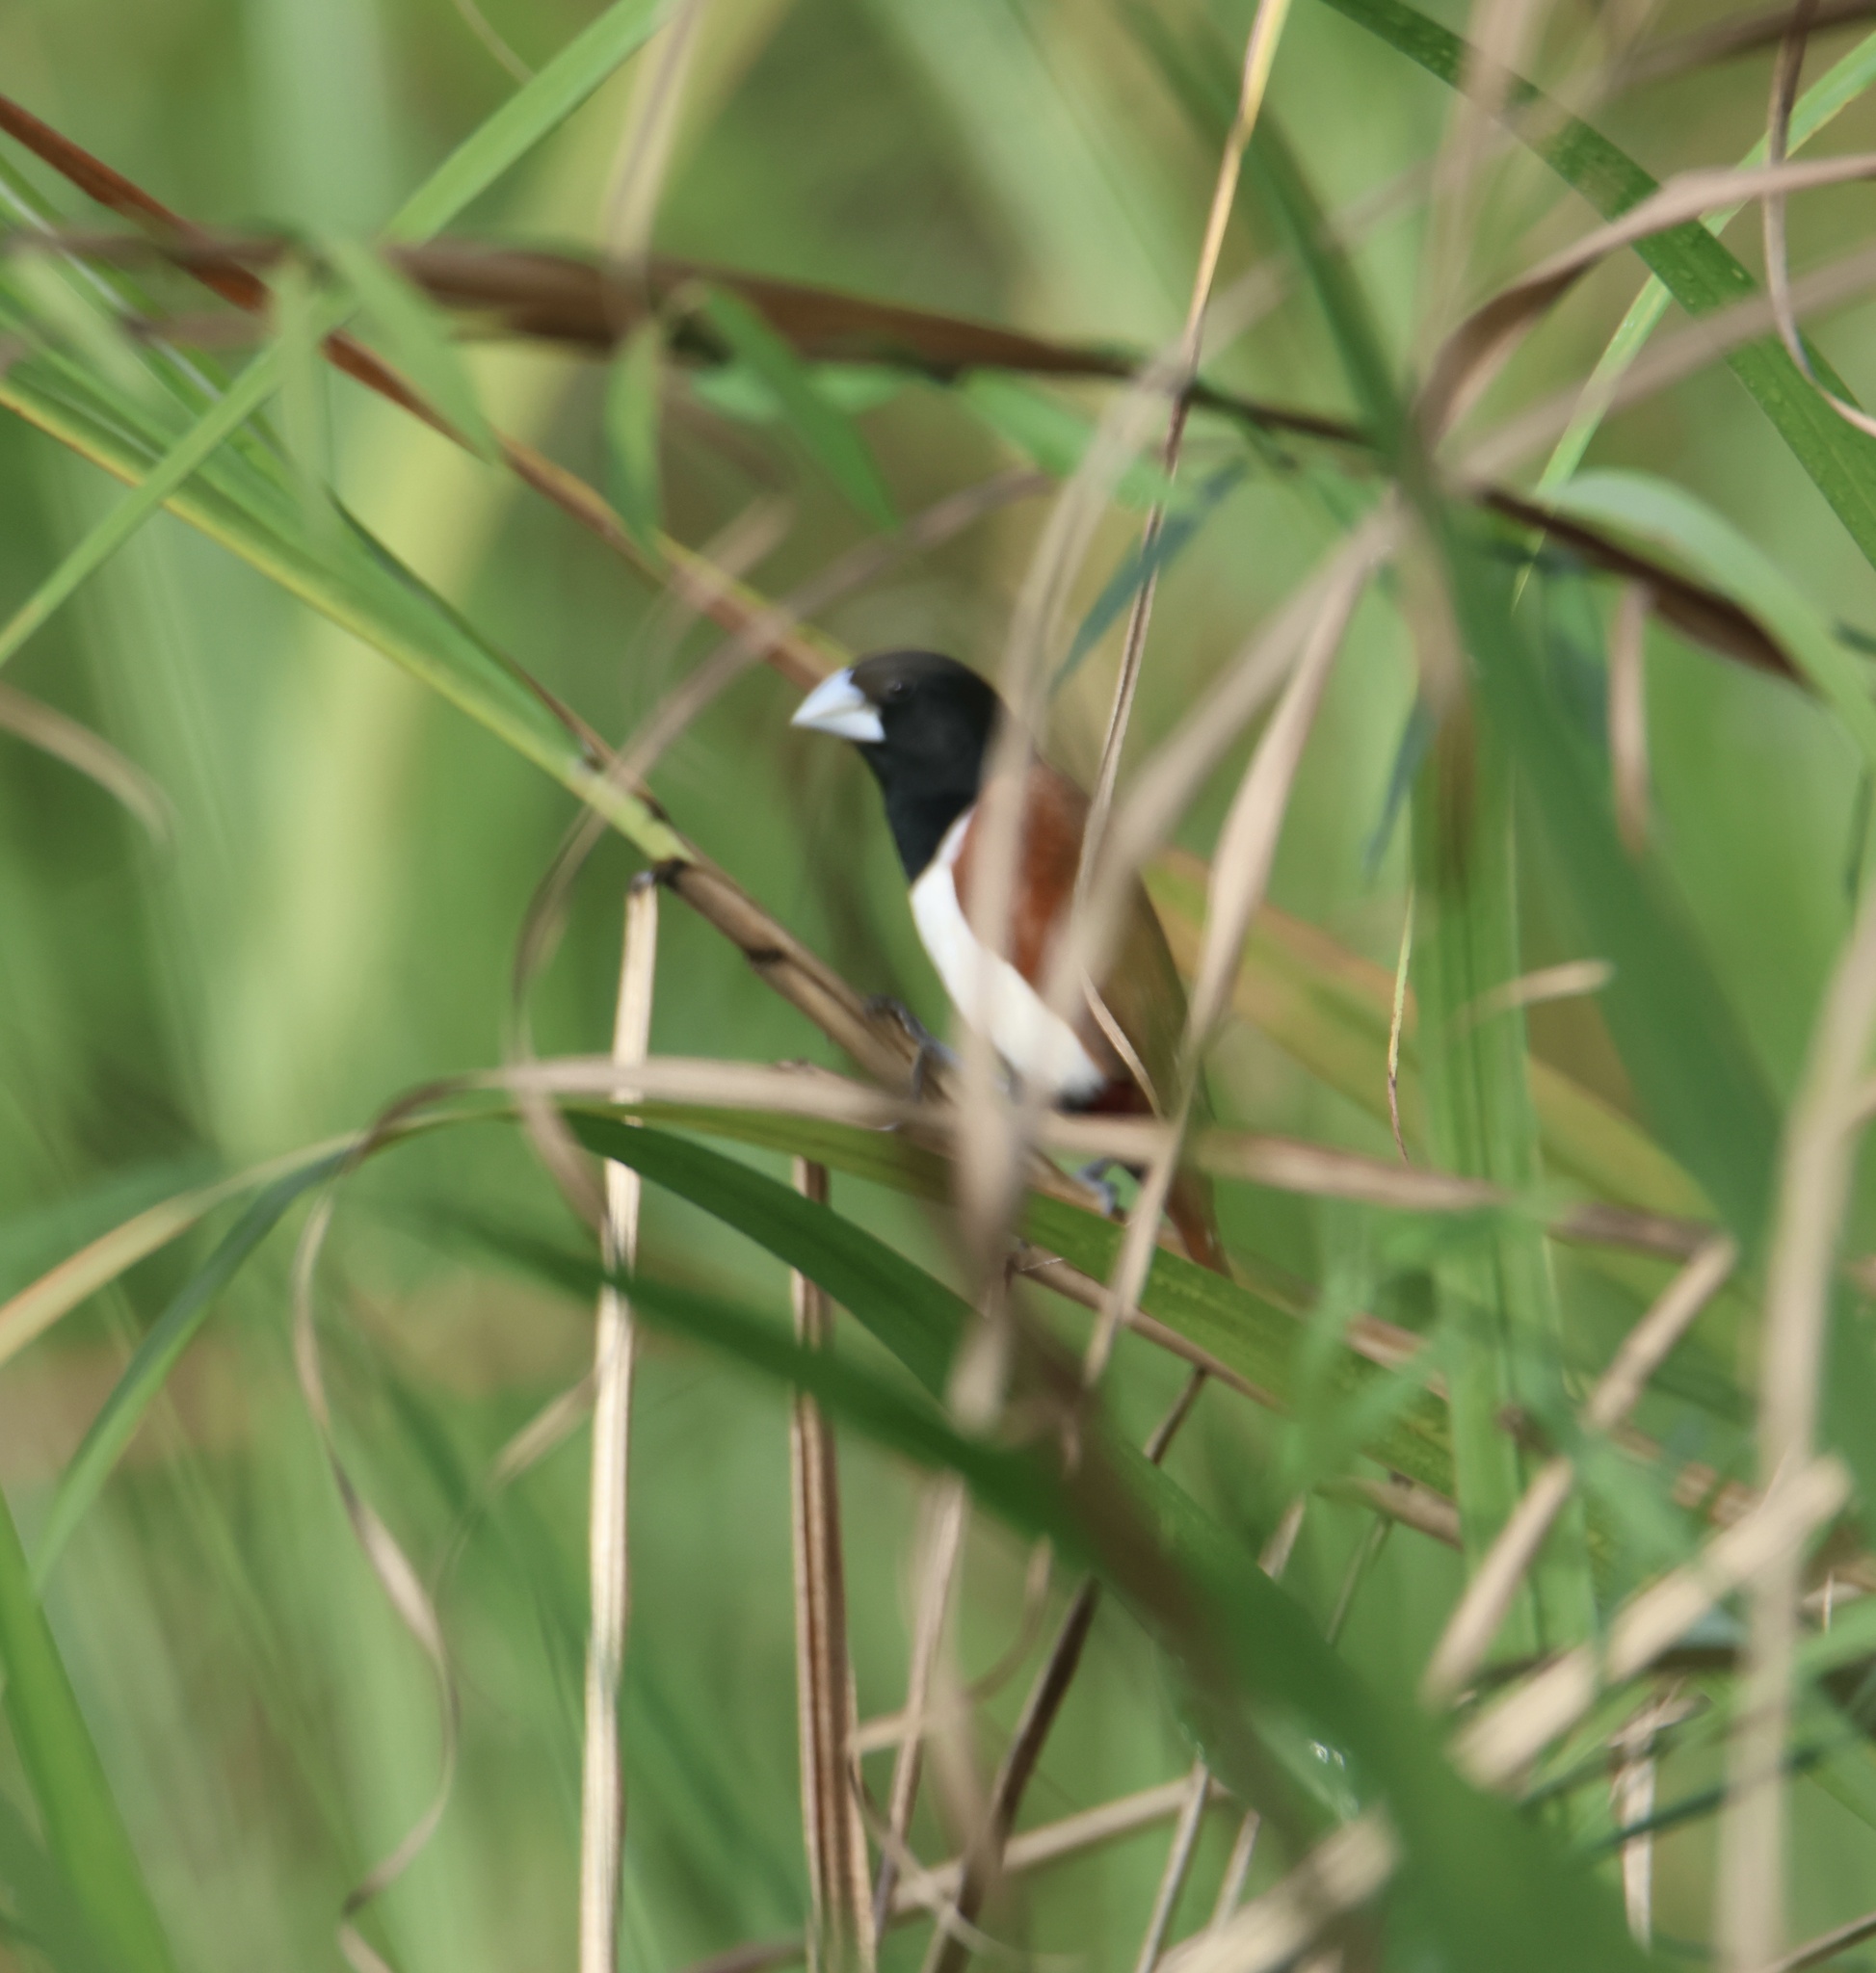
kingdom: Animalia
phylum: Chordata
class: Aves
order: Passeriformes
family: Estrildidae
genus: Lonchura
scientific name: Lonchura malacca
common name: Tricolored munia
